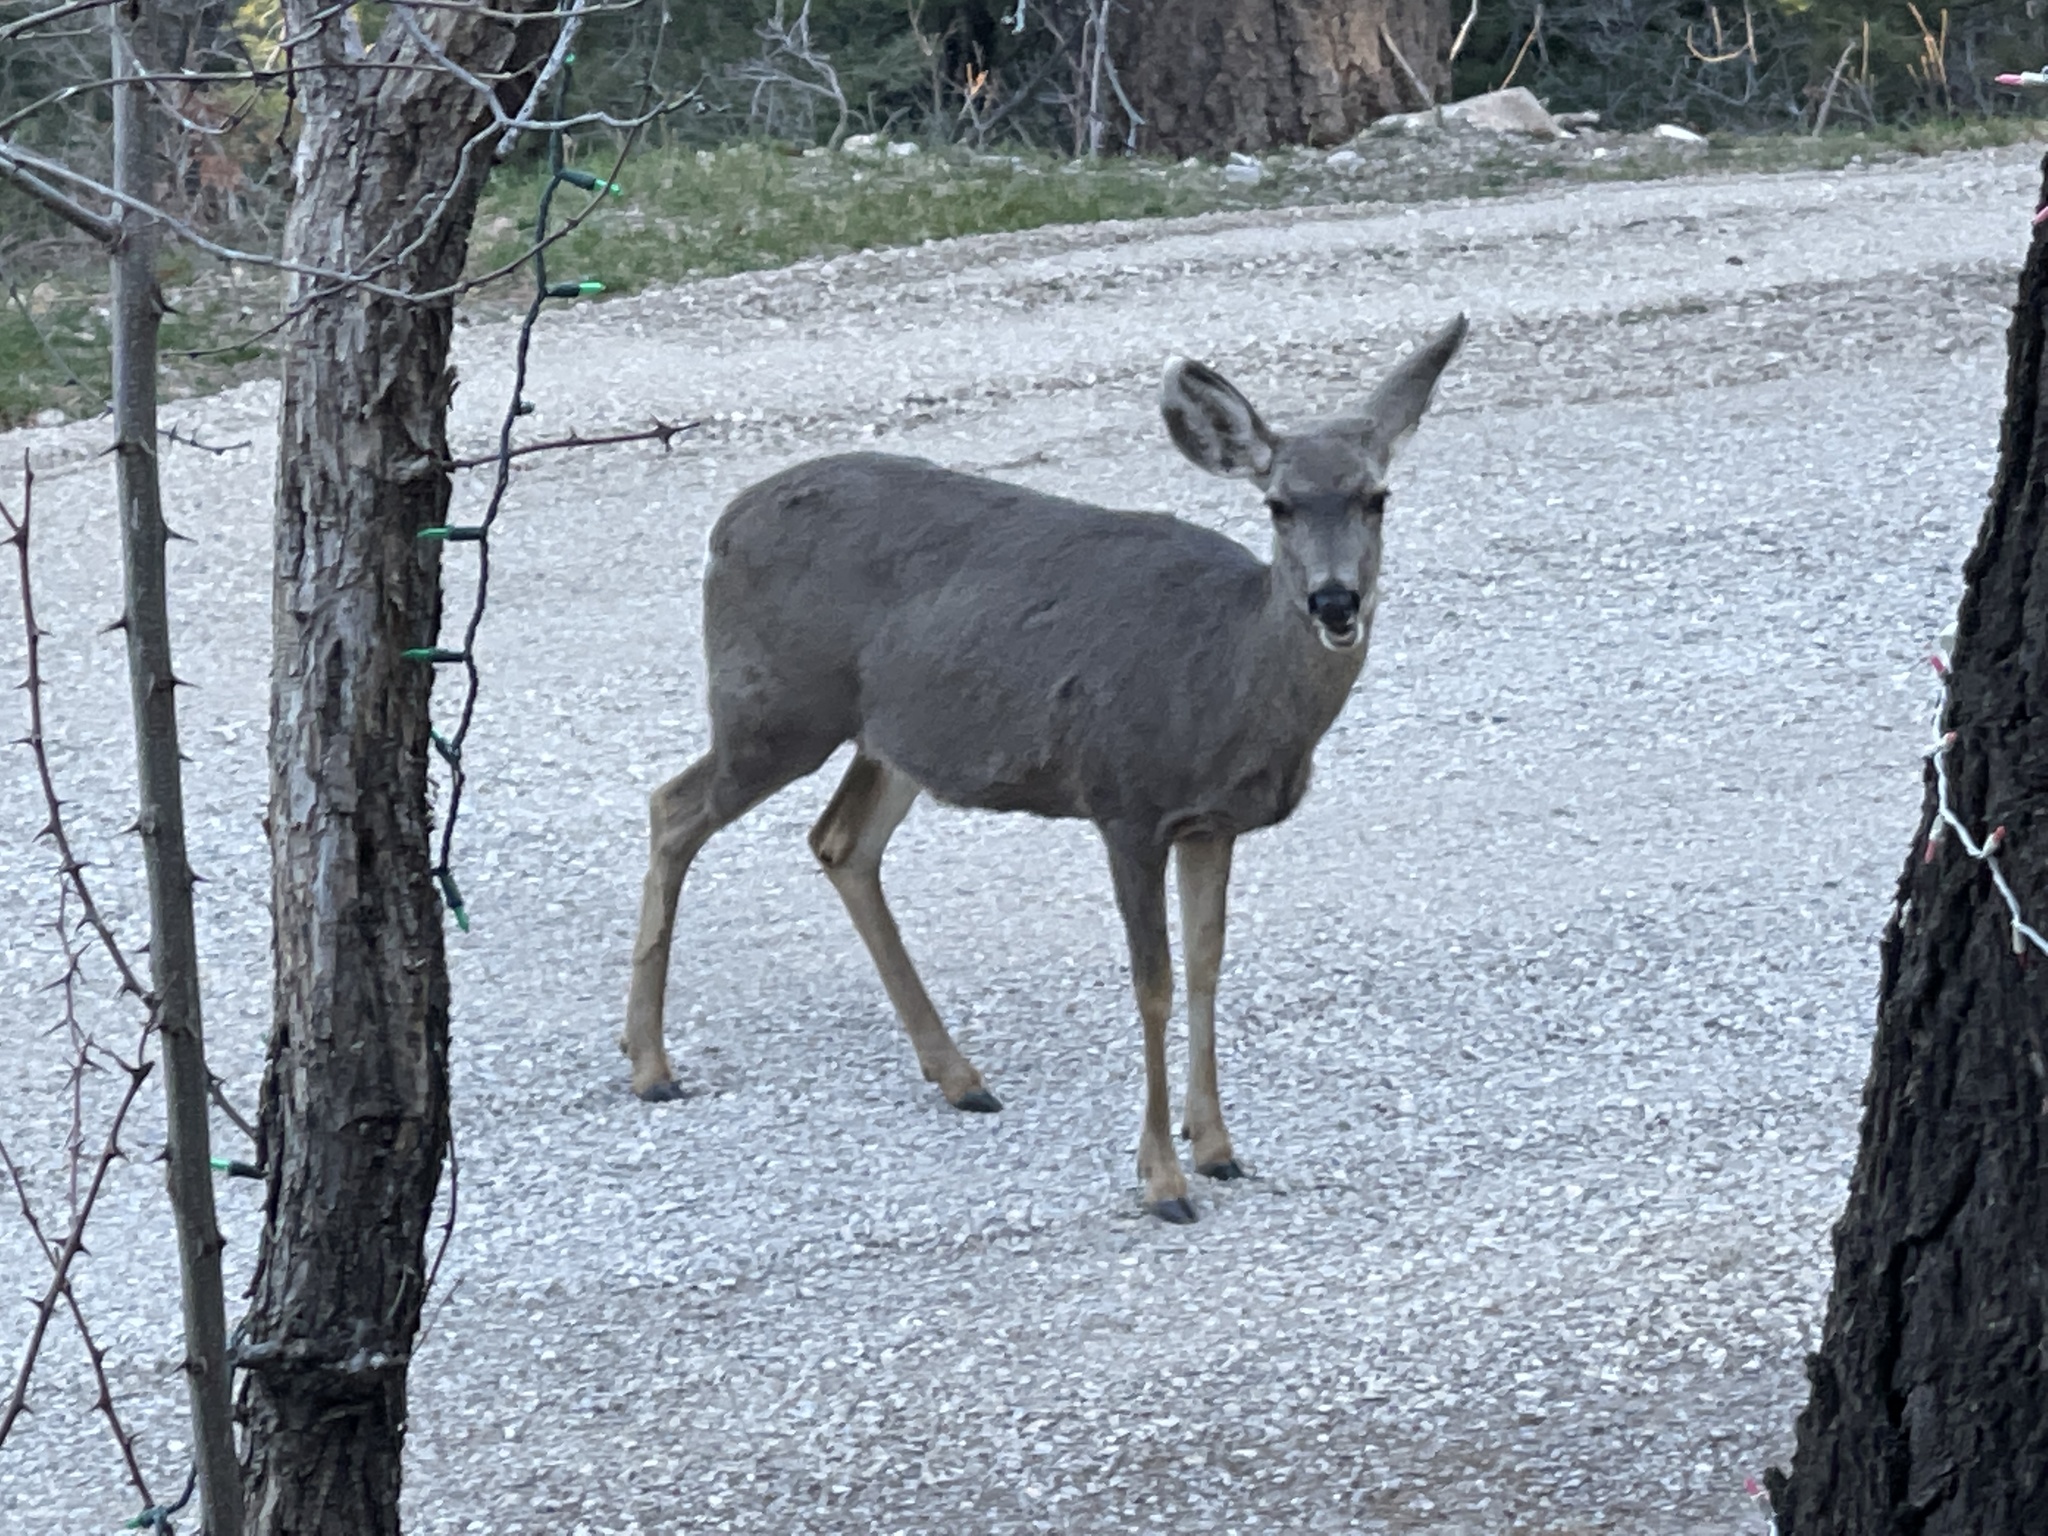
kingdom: Animalia
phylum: Chordata
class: Mammalia
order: Artiodactyla
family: Cervidae
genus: Odocoileus
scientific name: Odocoileus hemionus
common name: Mule deer
